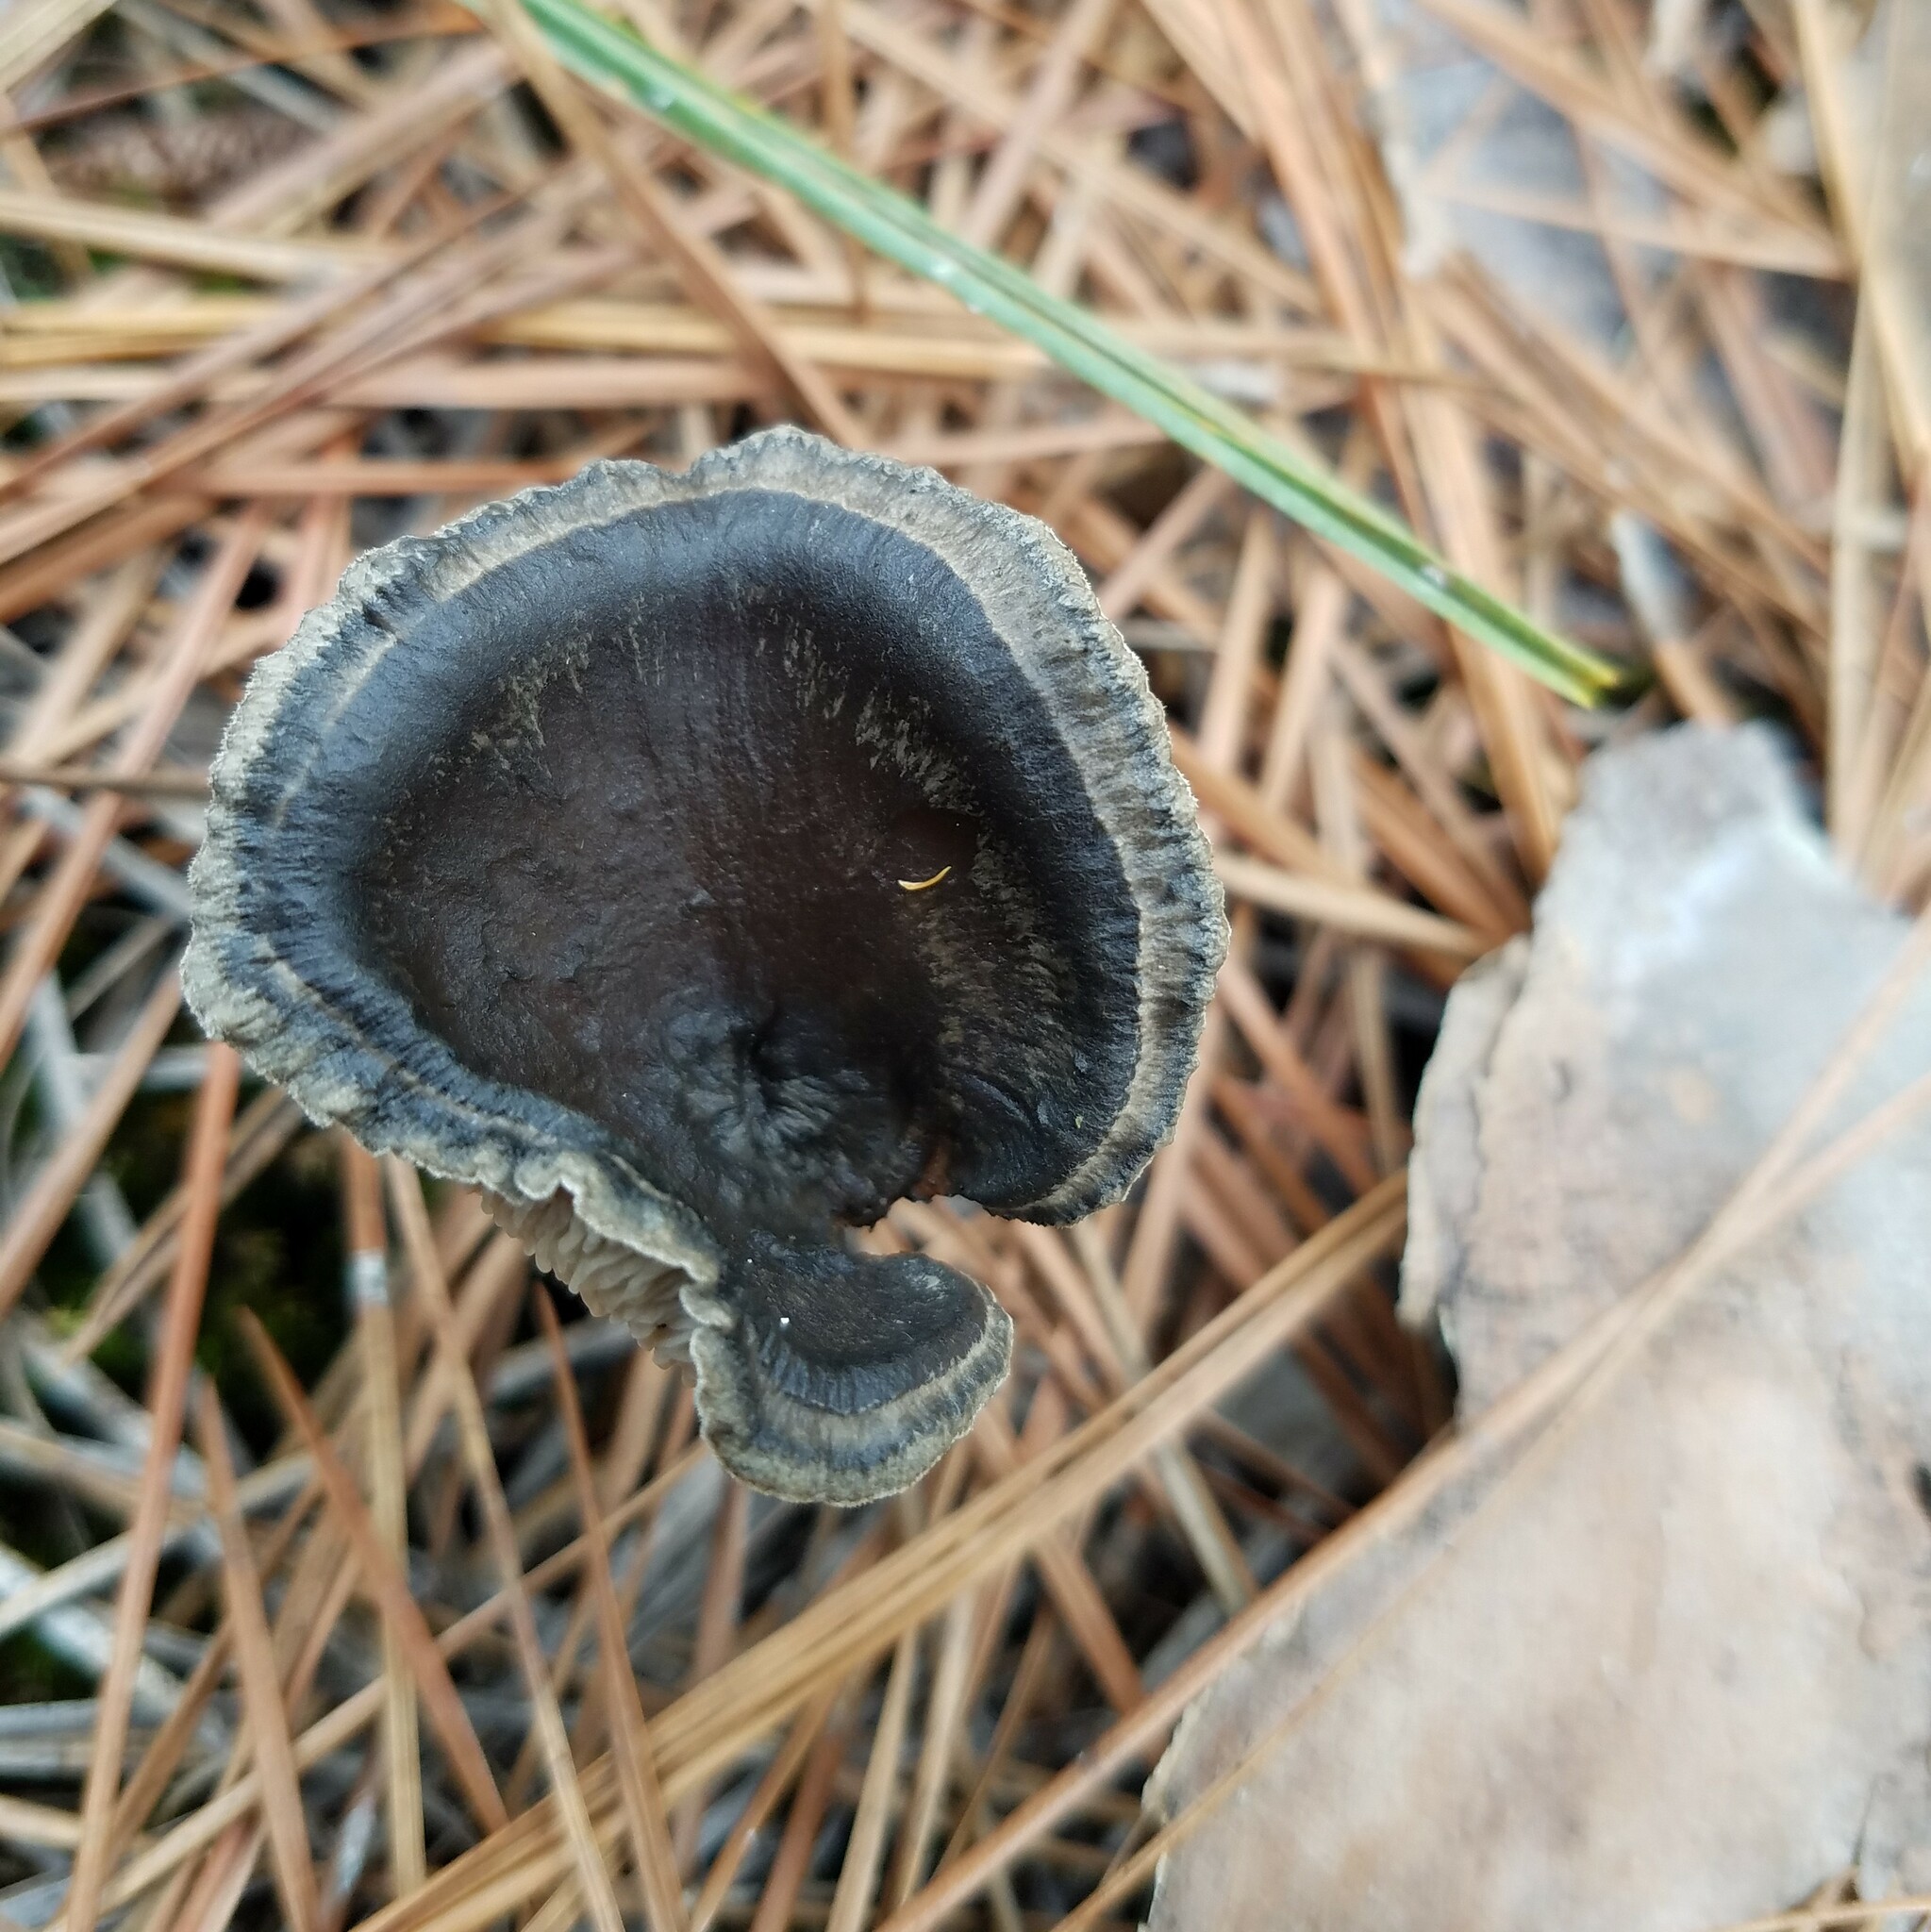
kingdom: Fungi
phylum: Basidiomycota
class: Agaricomycetes
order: Agaricales
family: Hygrophoraceae
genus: Cantharellula
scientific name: Cantharellula umbonata
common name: The humpback
